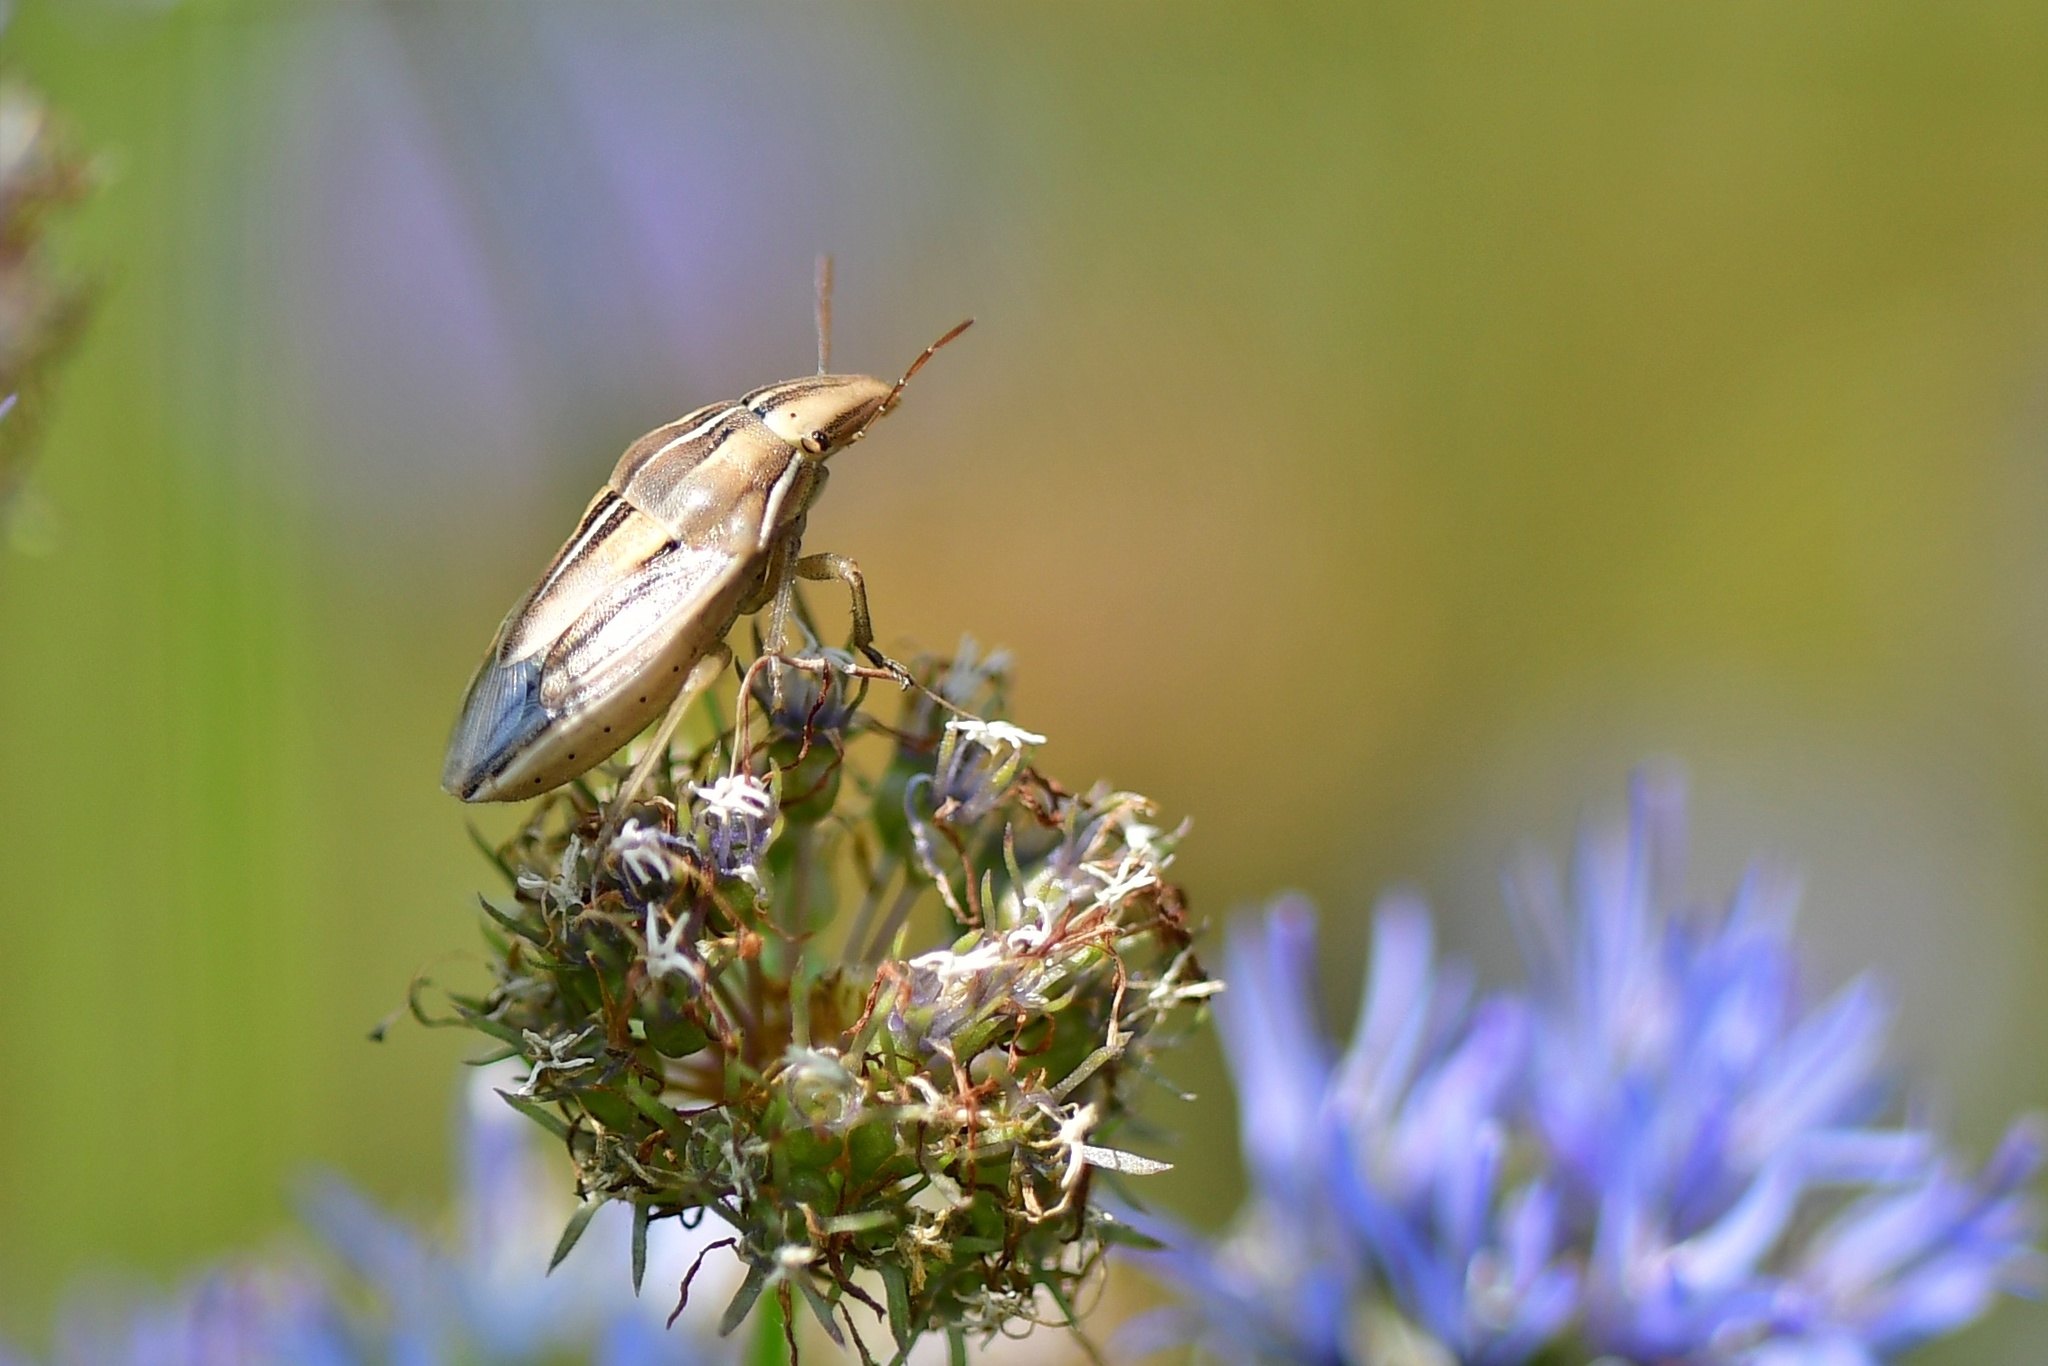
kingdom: Animalia
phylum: Arthropoda
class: Insecta
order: Hemiptera
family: Pentatomidae
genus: Aelia
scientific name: Aelia rostrata
